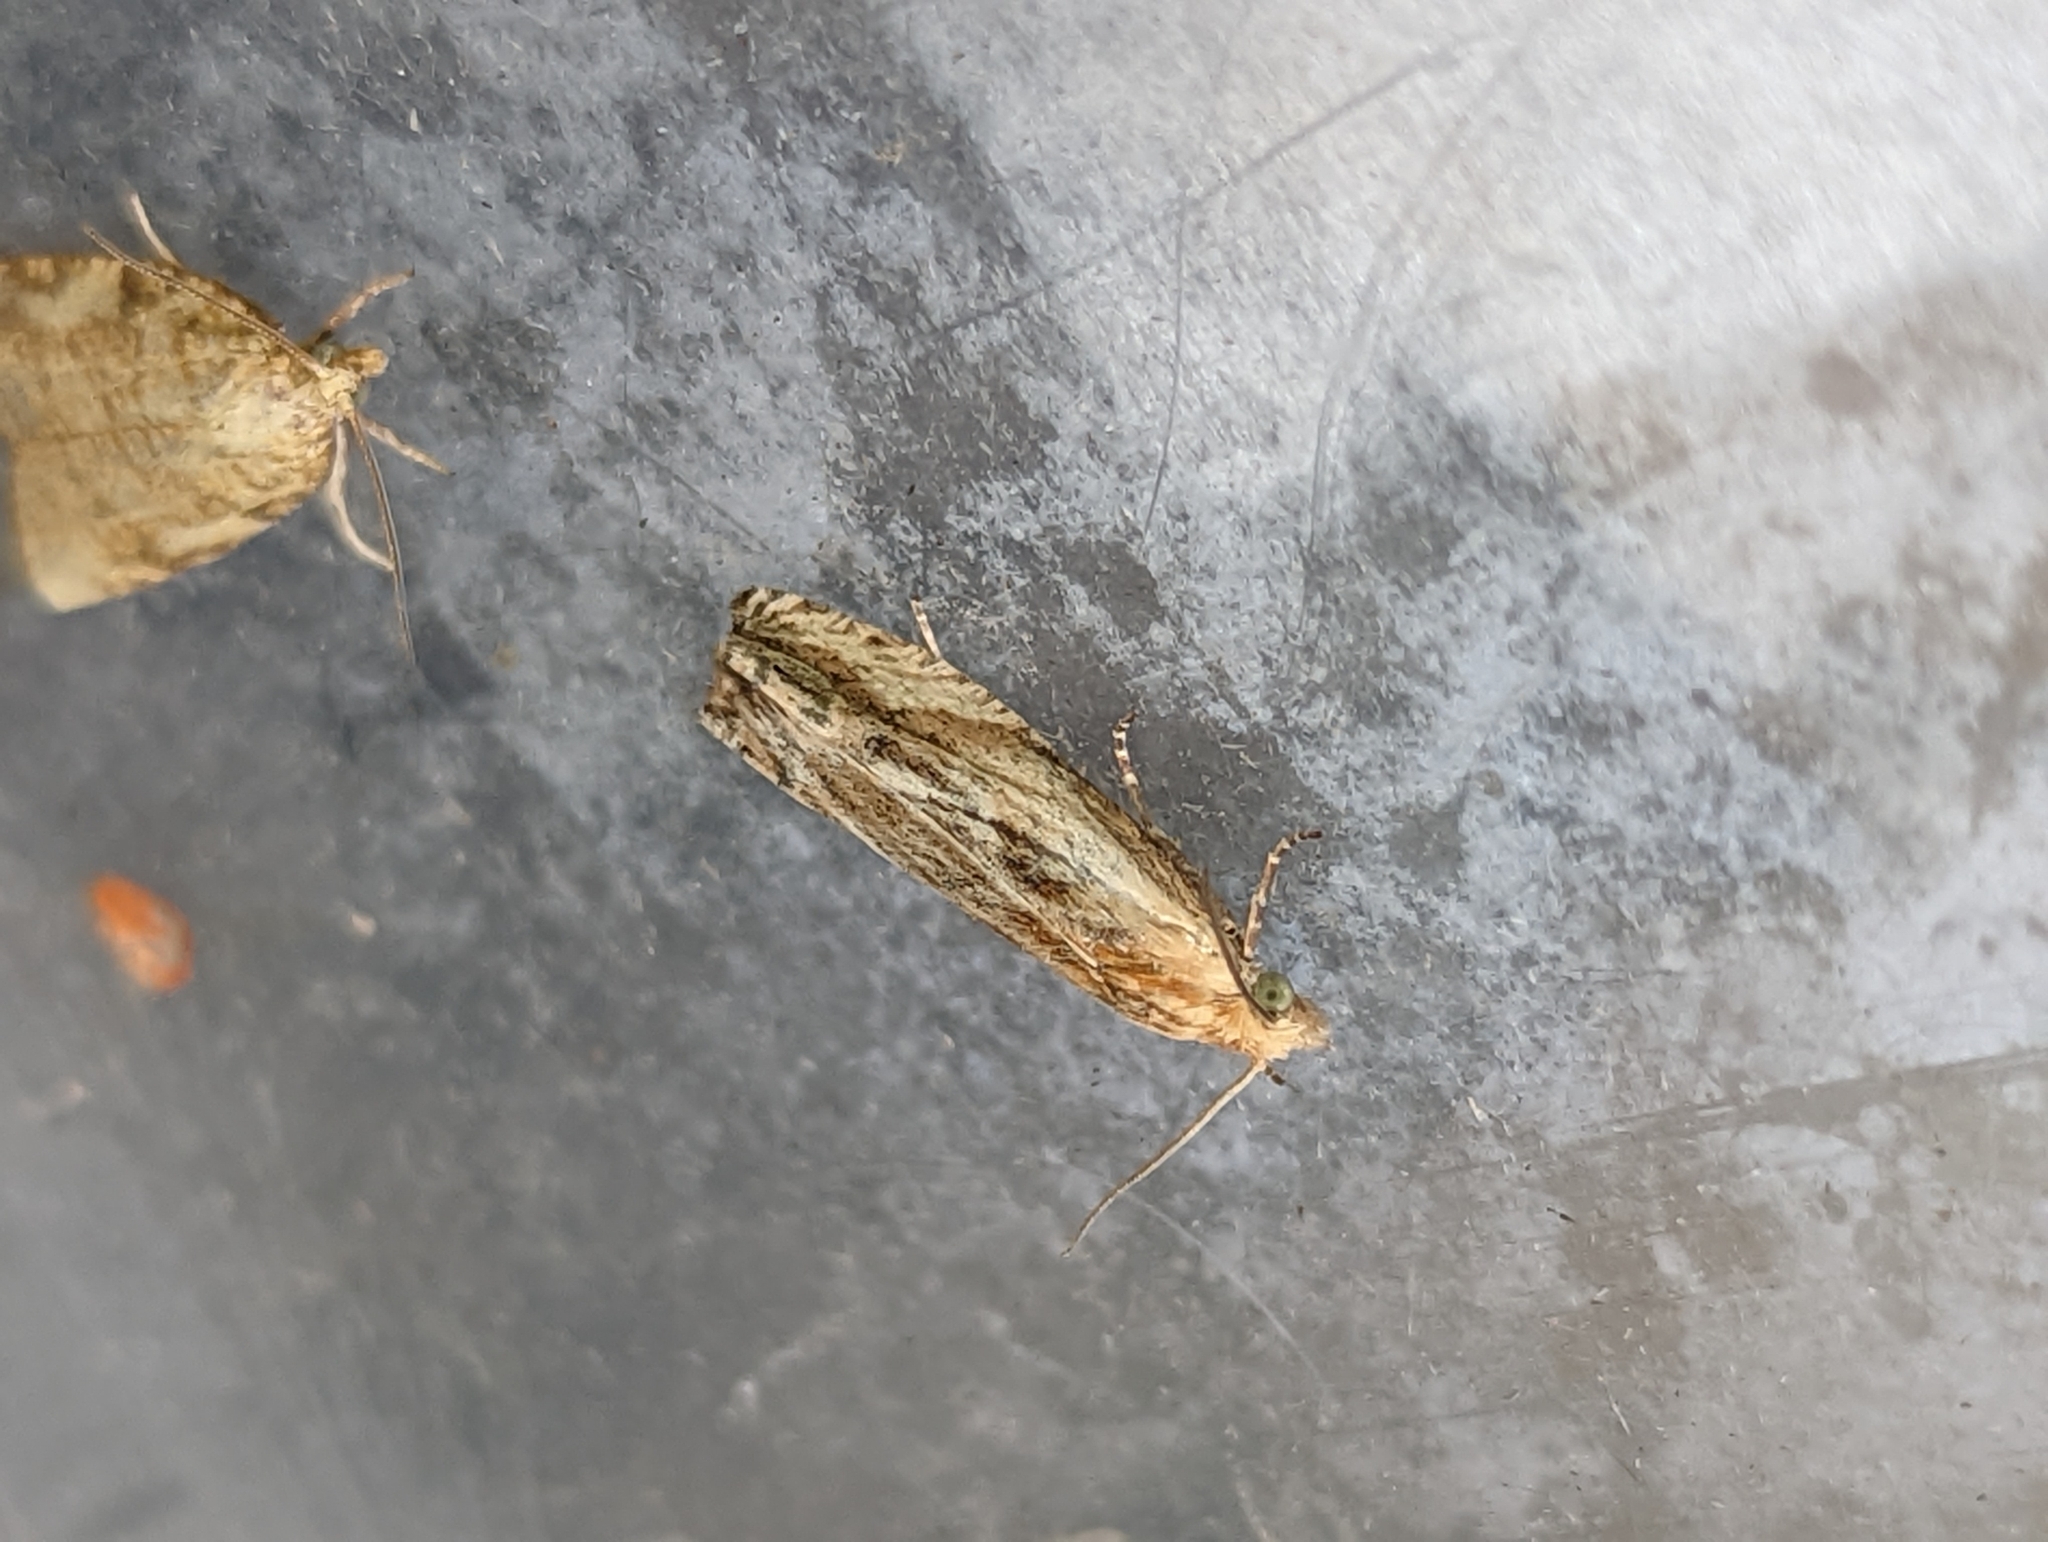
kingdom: Animalia
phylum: Arthropoda
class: Insecta
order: Lepidoptera
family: Tortricidae
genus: Eucosma
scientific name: Eucosma cana
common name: Hoary belle
